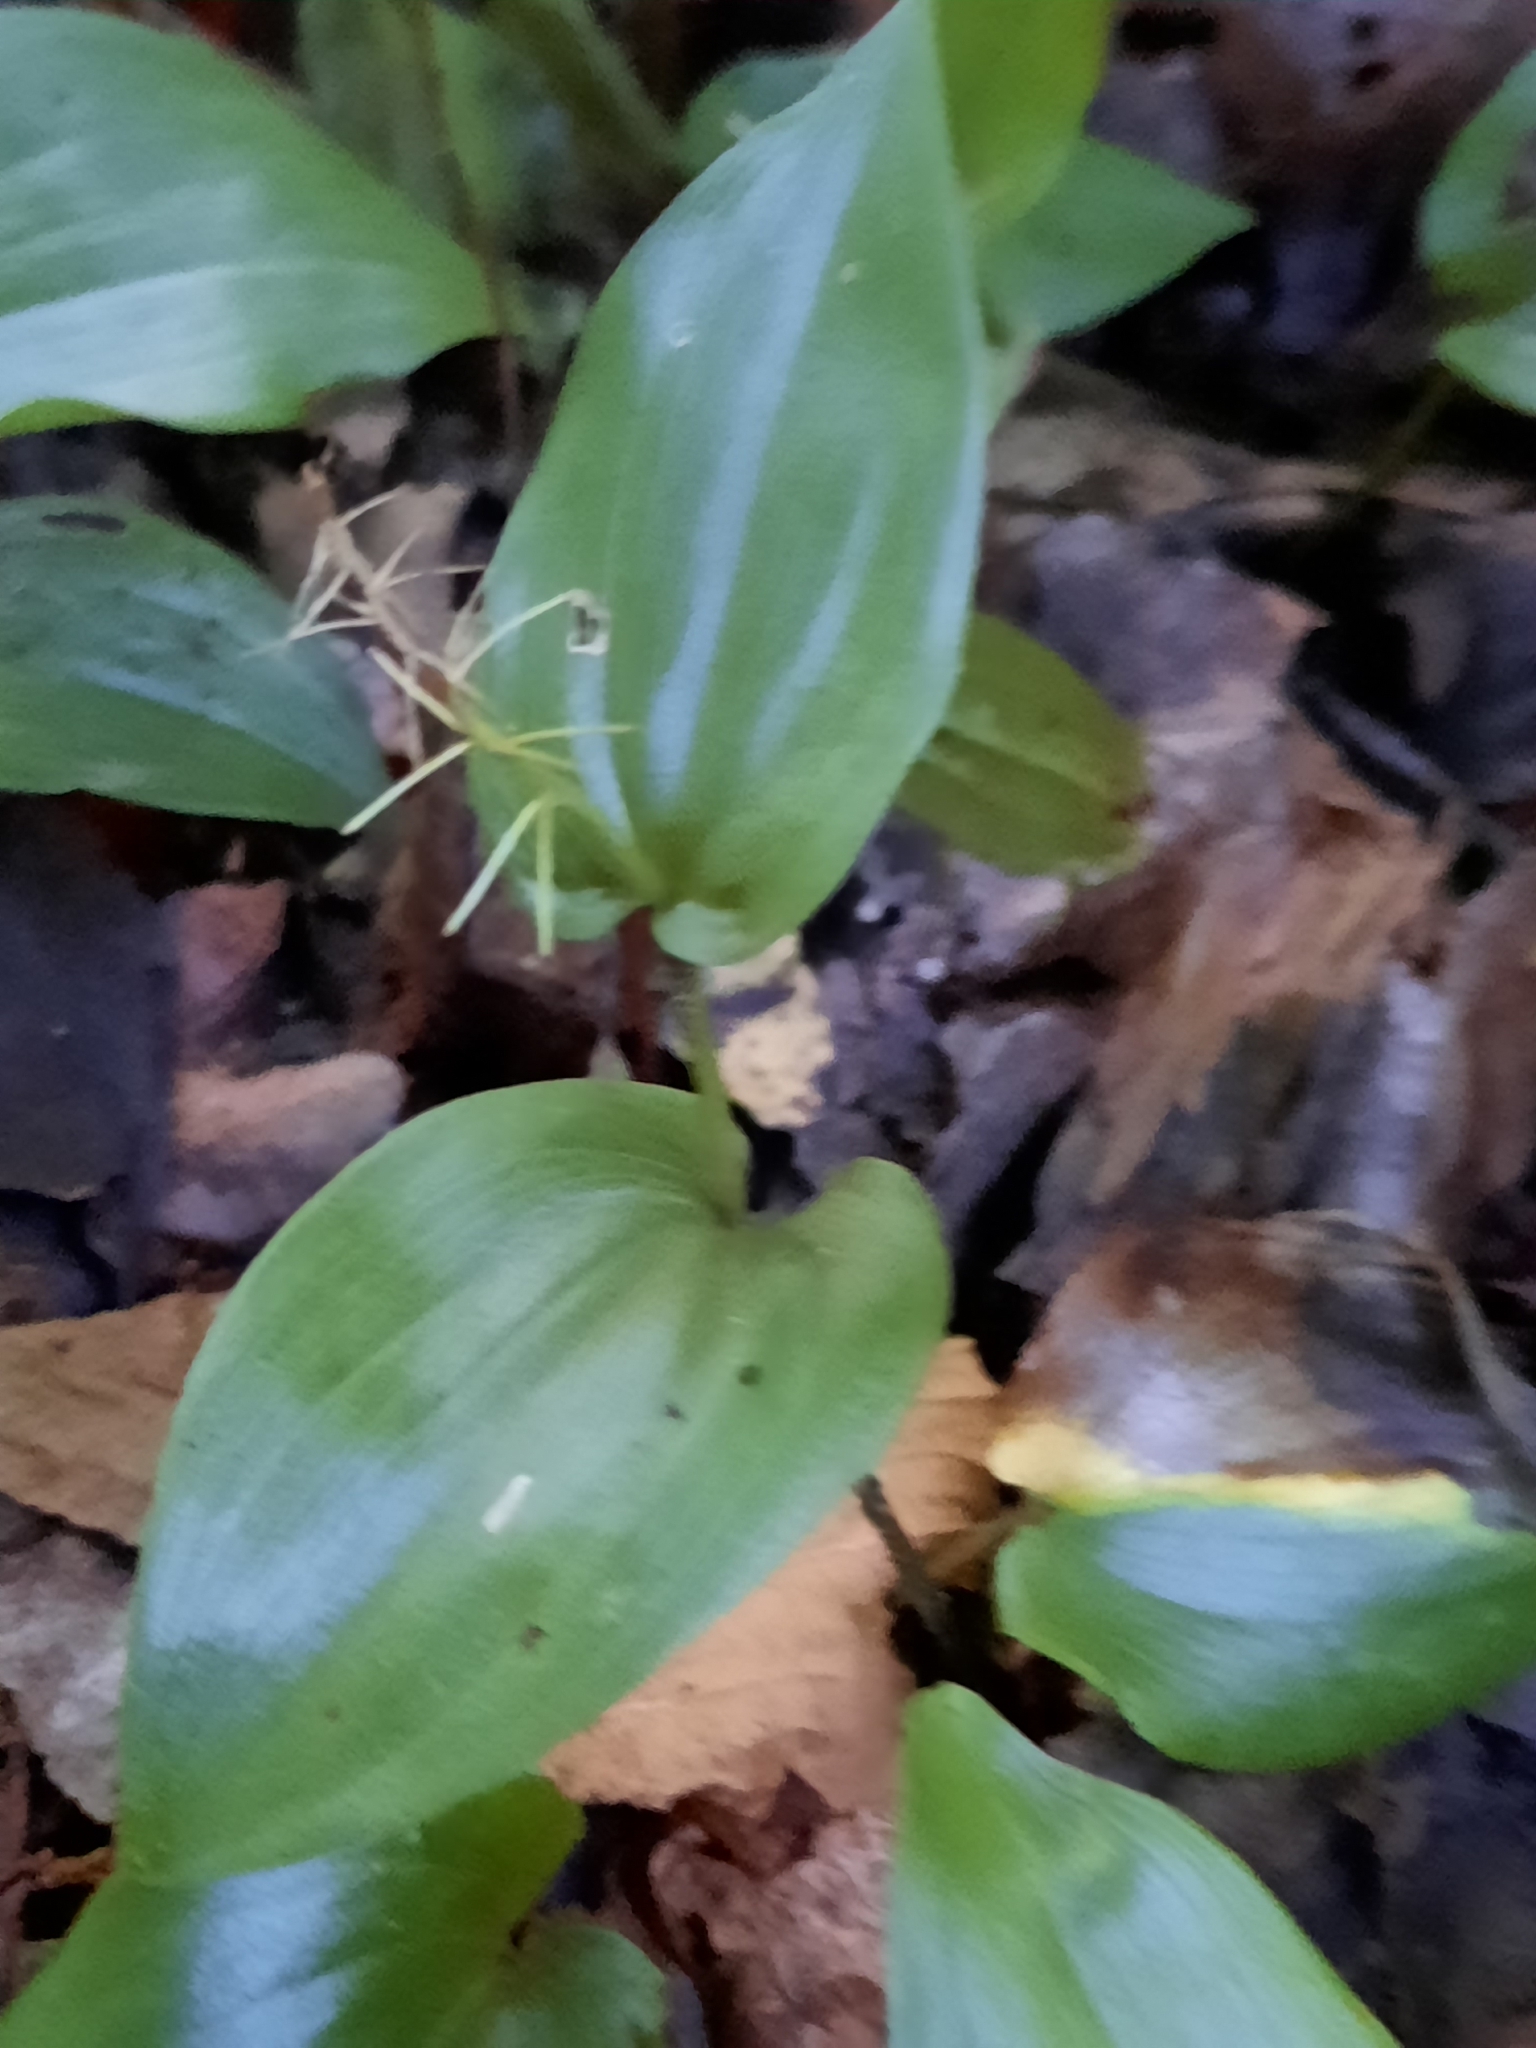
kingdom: Plantae
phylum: Tracheophyta
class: Liliopsida
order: Asparagales
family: Asparagaceae
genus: Maianthemum
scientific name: Maianthemum canadense
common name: False lily-of-the-valley
